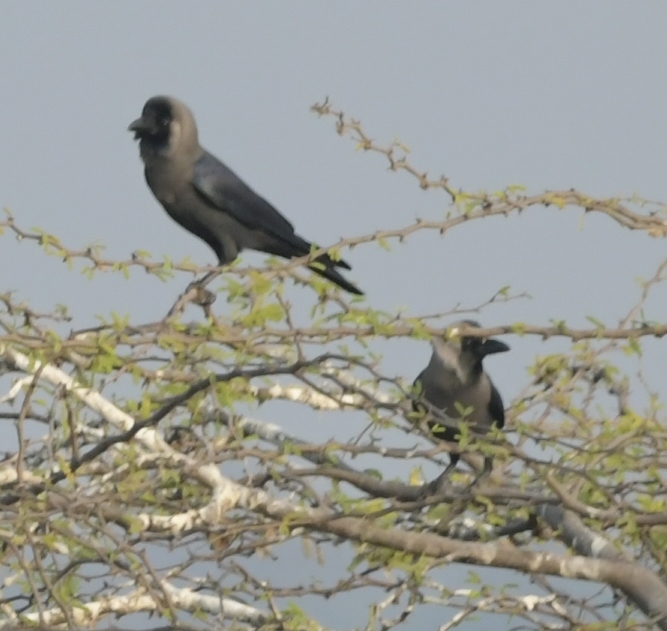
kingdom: Animalia
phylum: Chordata
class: Aves
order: Passeriformes
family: Corvidae
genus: Corvus
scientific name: Corvus splendens
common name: House crow
